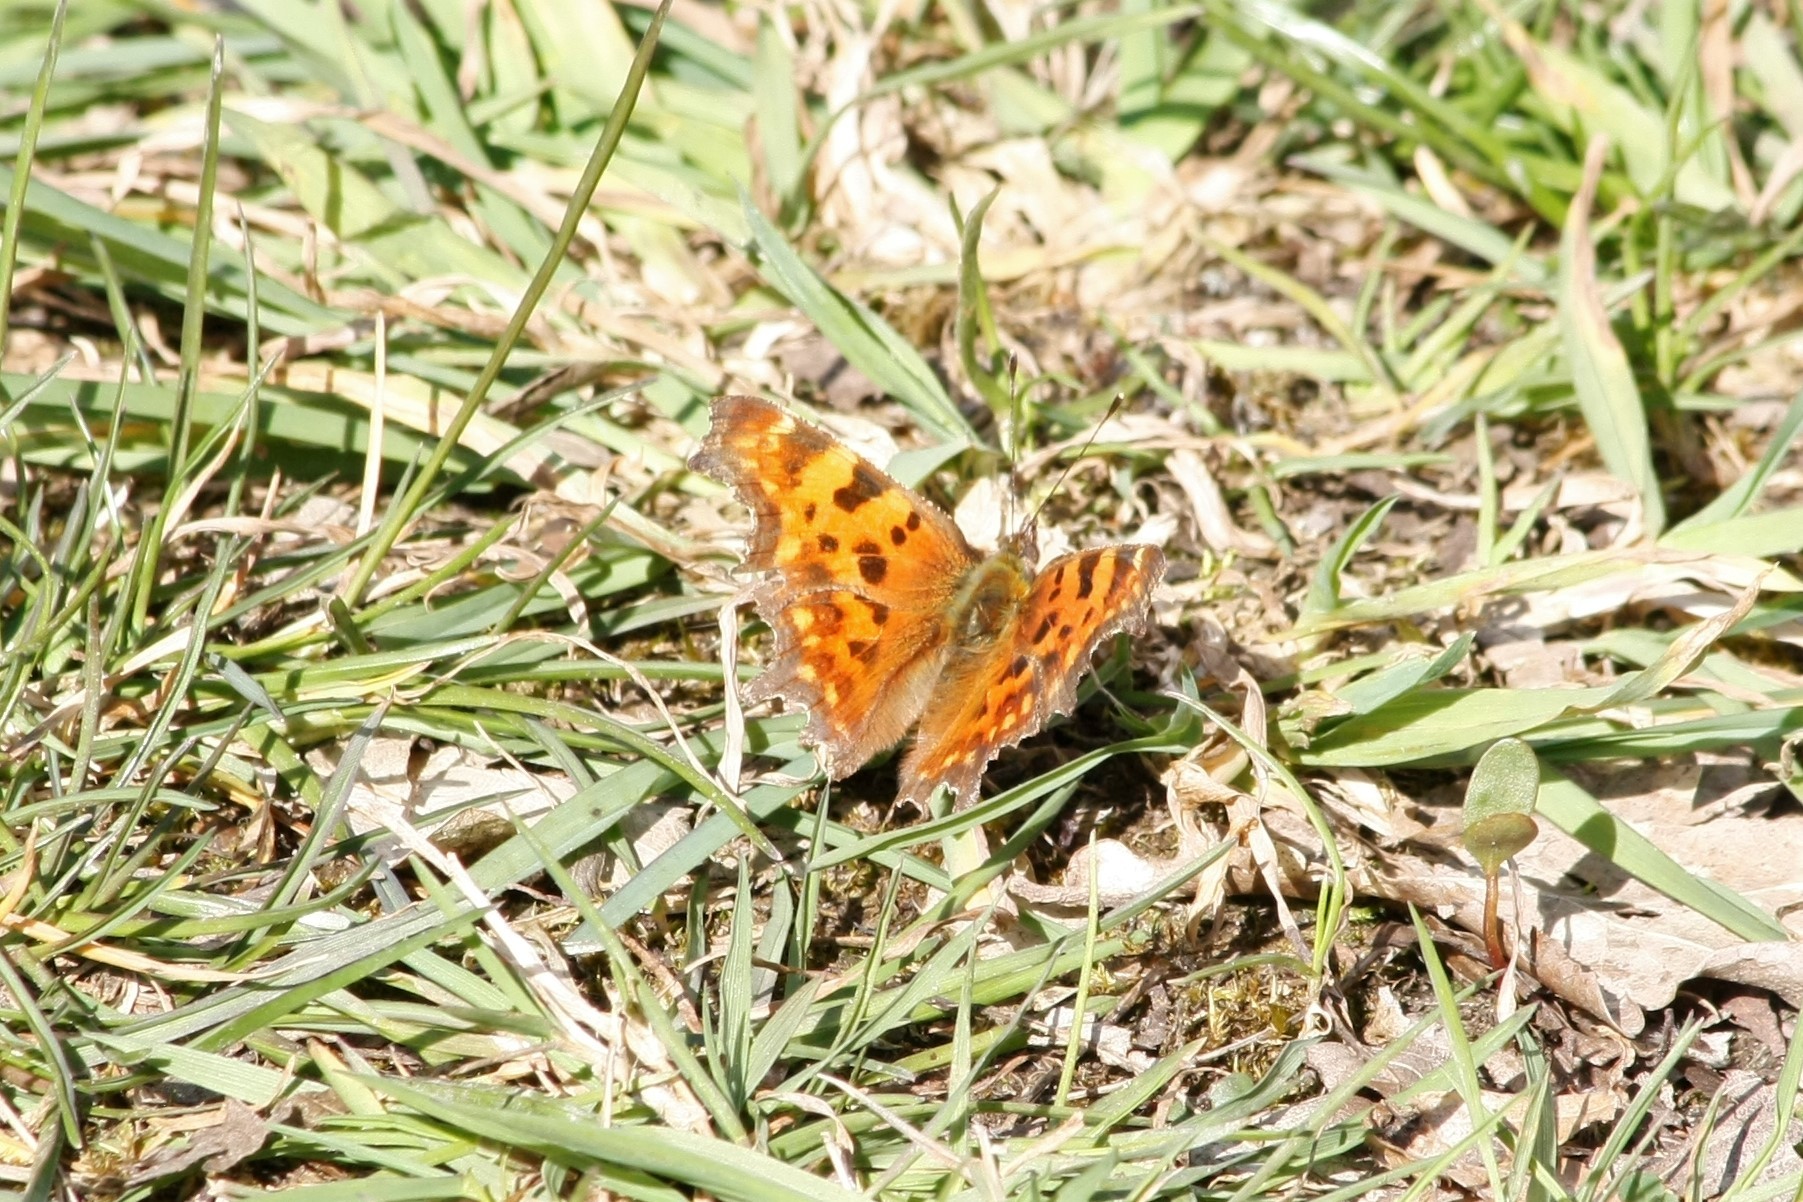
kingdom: Animalia
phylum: Arthropoda
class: Insecta
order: Lepidoptera
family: Nymphalidae
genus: Polygonia
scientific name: Polygonia c-album
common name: Comma
